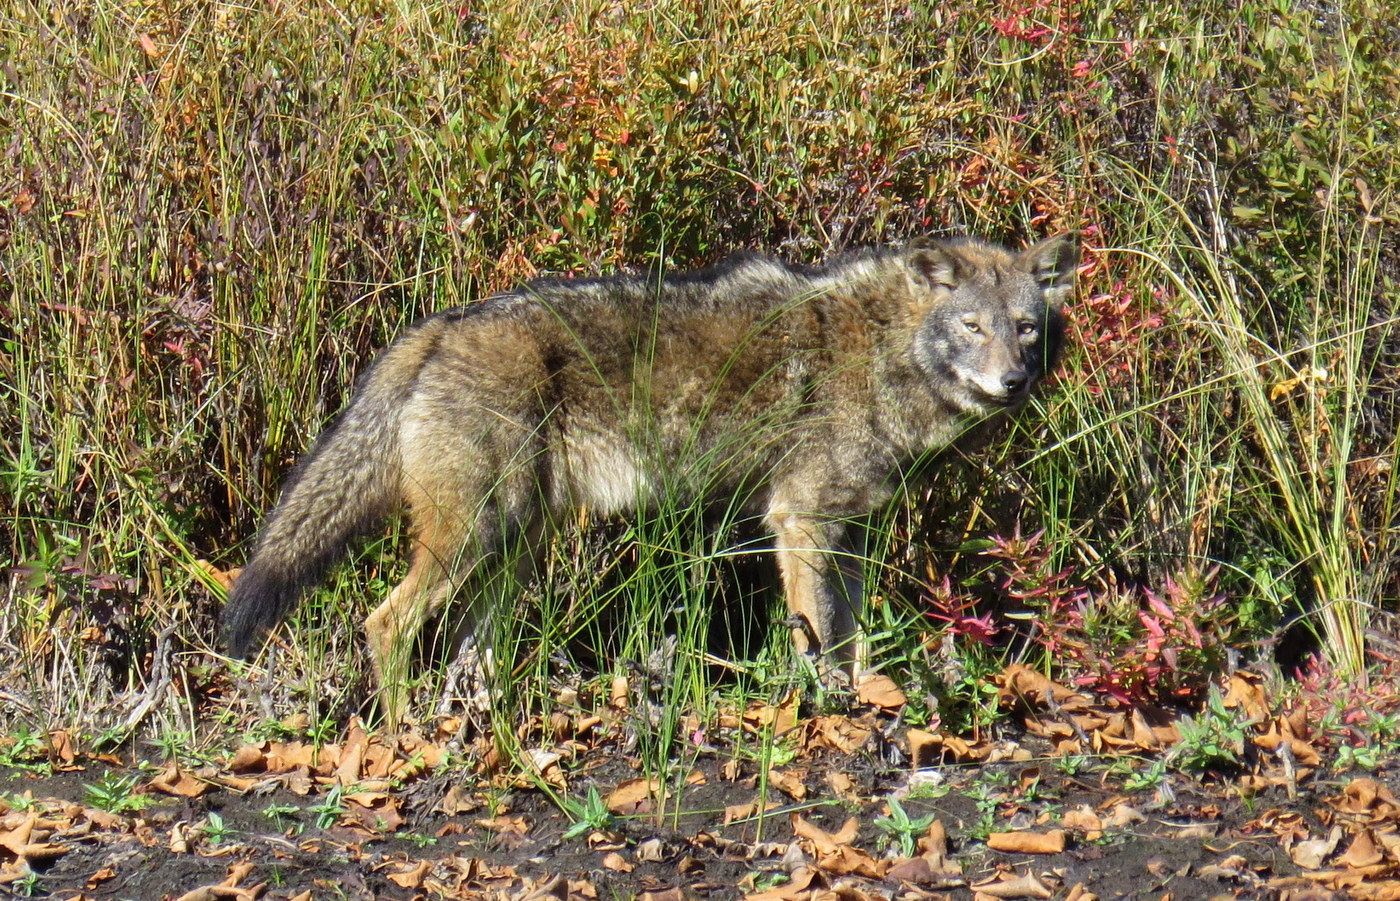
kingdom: Animalia
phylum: Chordata
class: Mammalia
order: Carnivora
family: Canidae
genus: Canis
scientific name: Canis latrans
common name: Coyote
